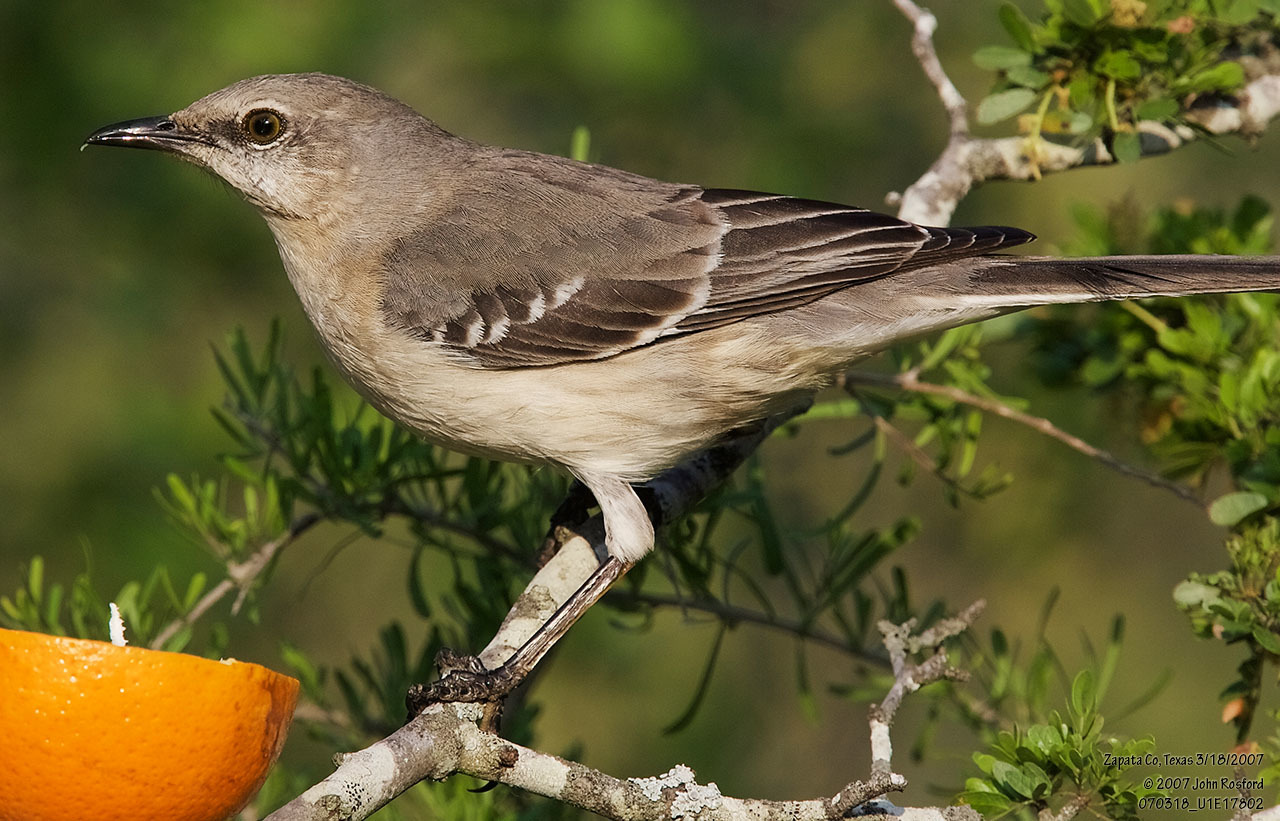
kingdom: Animalia
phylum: Chordata
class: Aves
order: Passeriformes
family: Mimidae
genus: Mimus
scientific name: Mimus polyglottos
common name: Northern mockingbird
